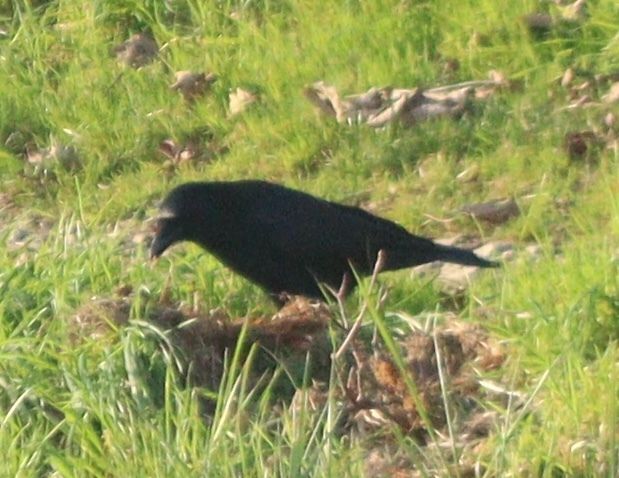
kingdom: Animalia
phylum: Chordata
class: Aves
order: Passeriformes
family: Corvidae
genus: Corvus
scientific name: Corvus corone
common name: Carrion crow
